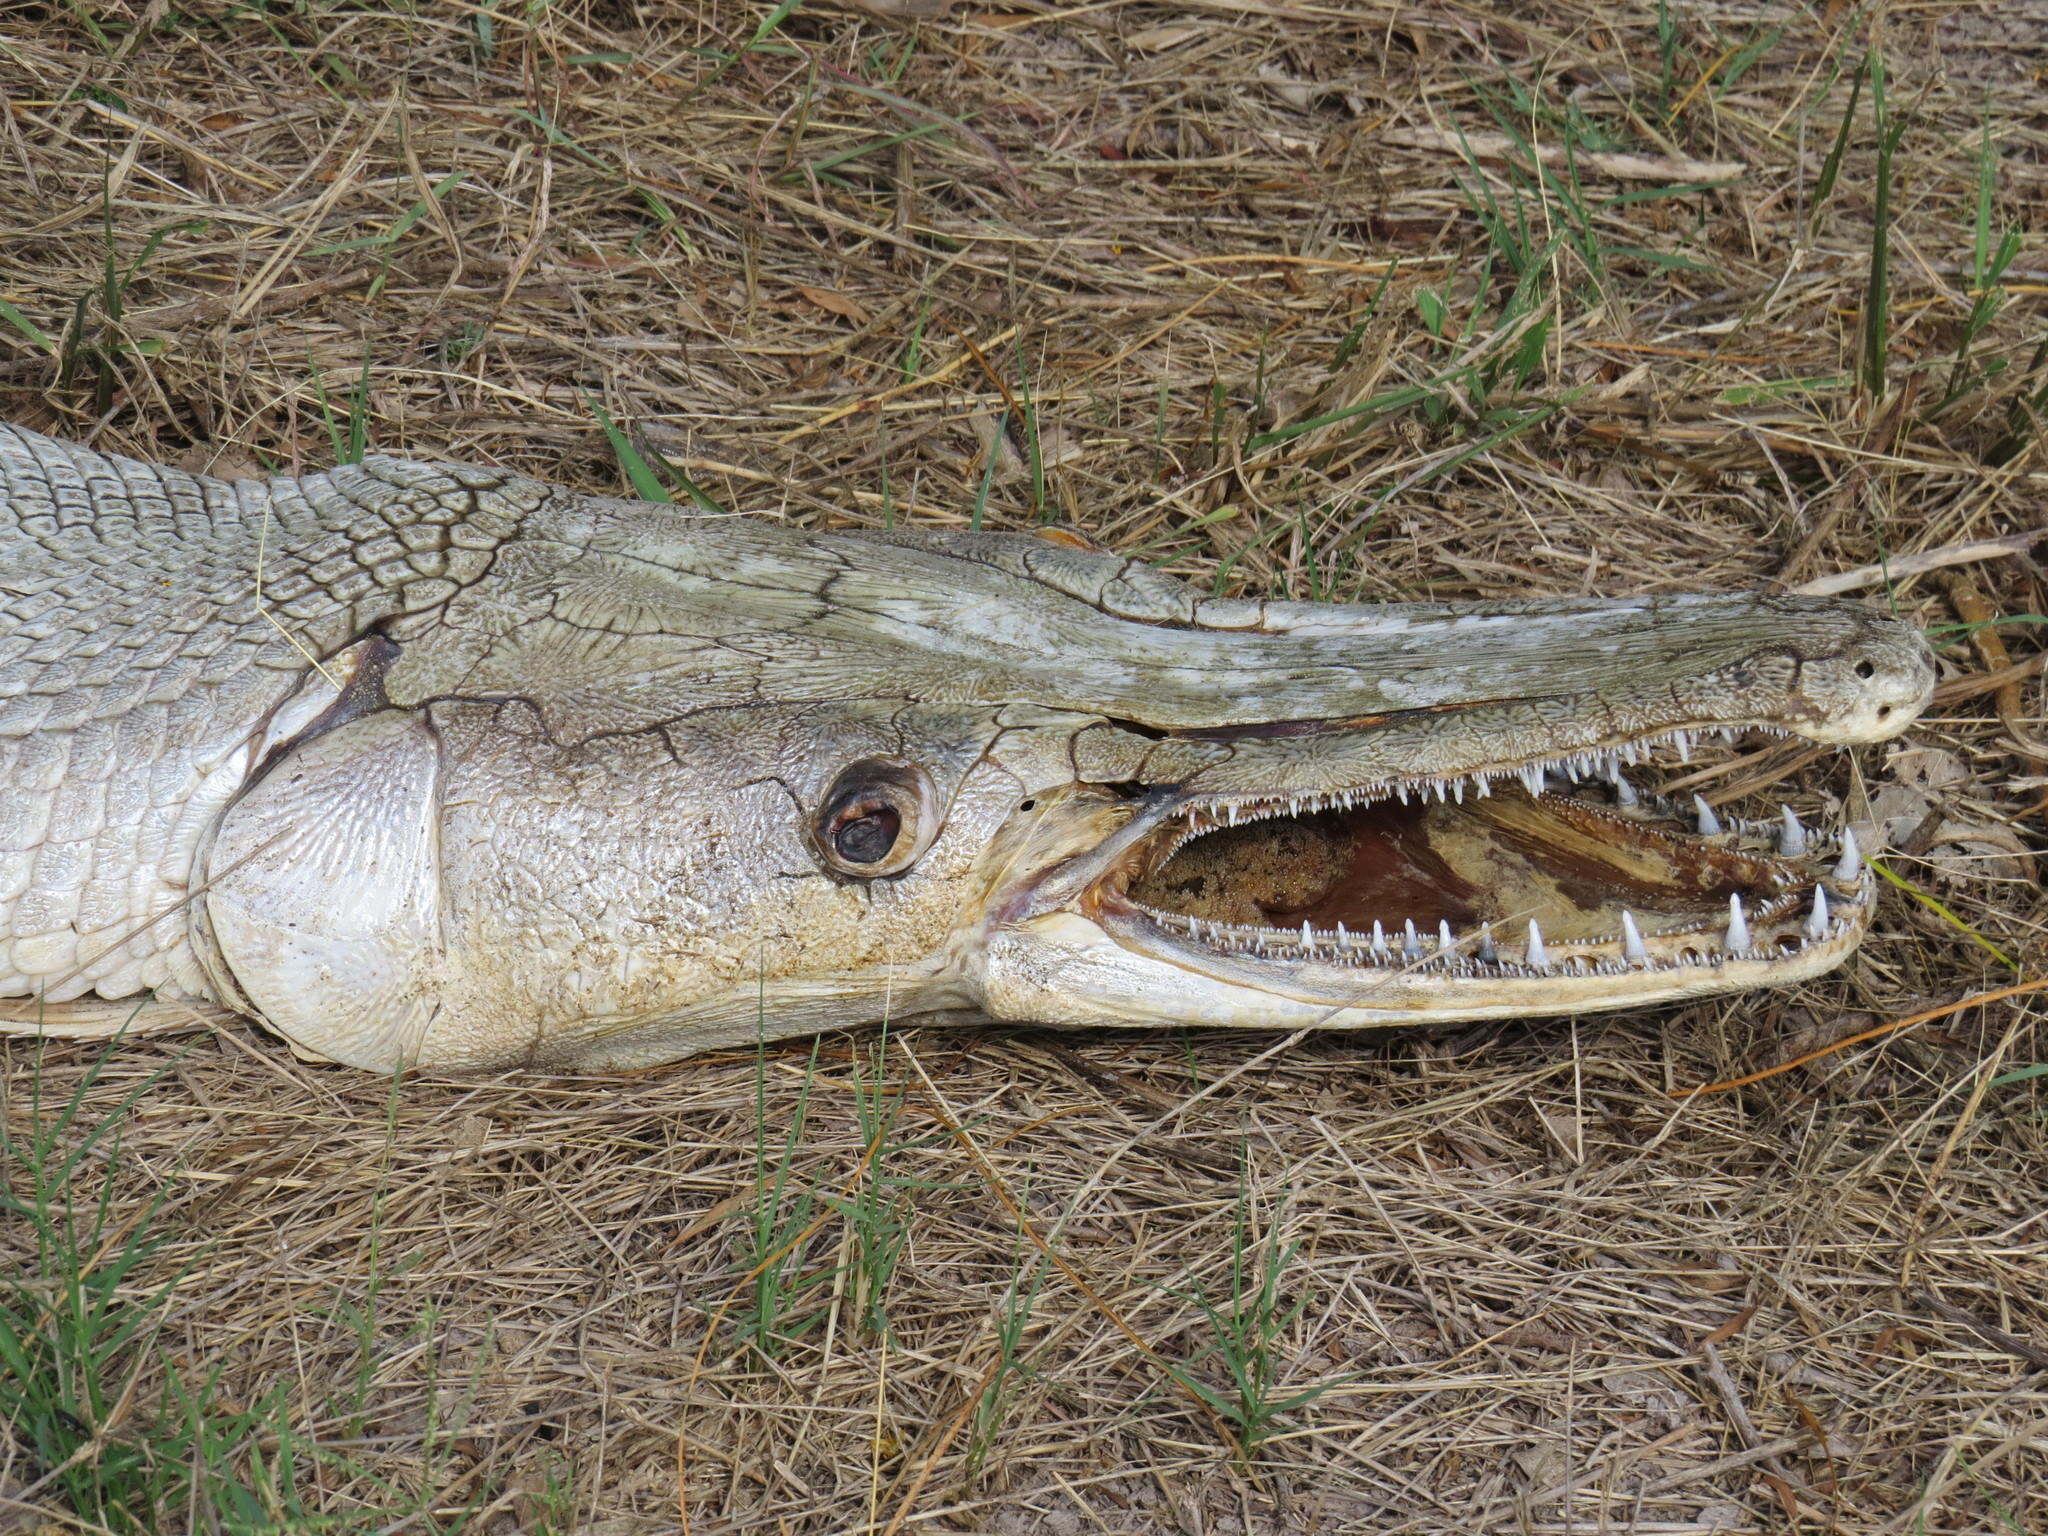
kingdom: Animalia
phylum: Chordata
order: Lepisosteiformes
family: Lepisosteidae
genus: Atractosteus
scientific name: Atractosteus spatula
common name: Alligator gar
